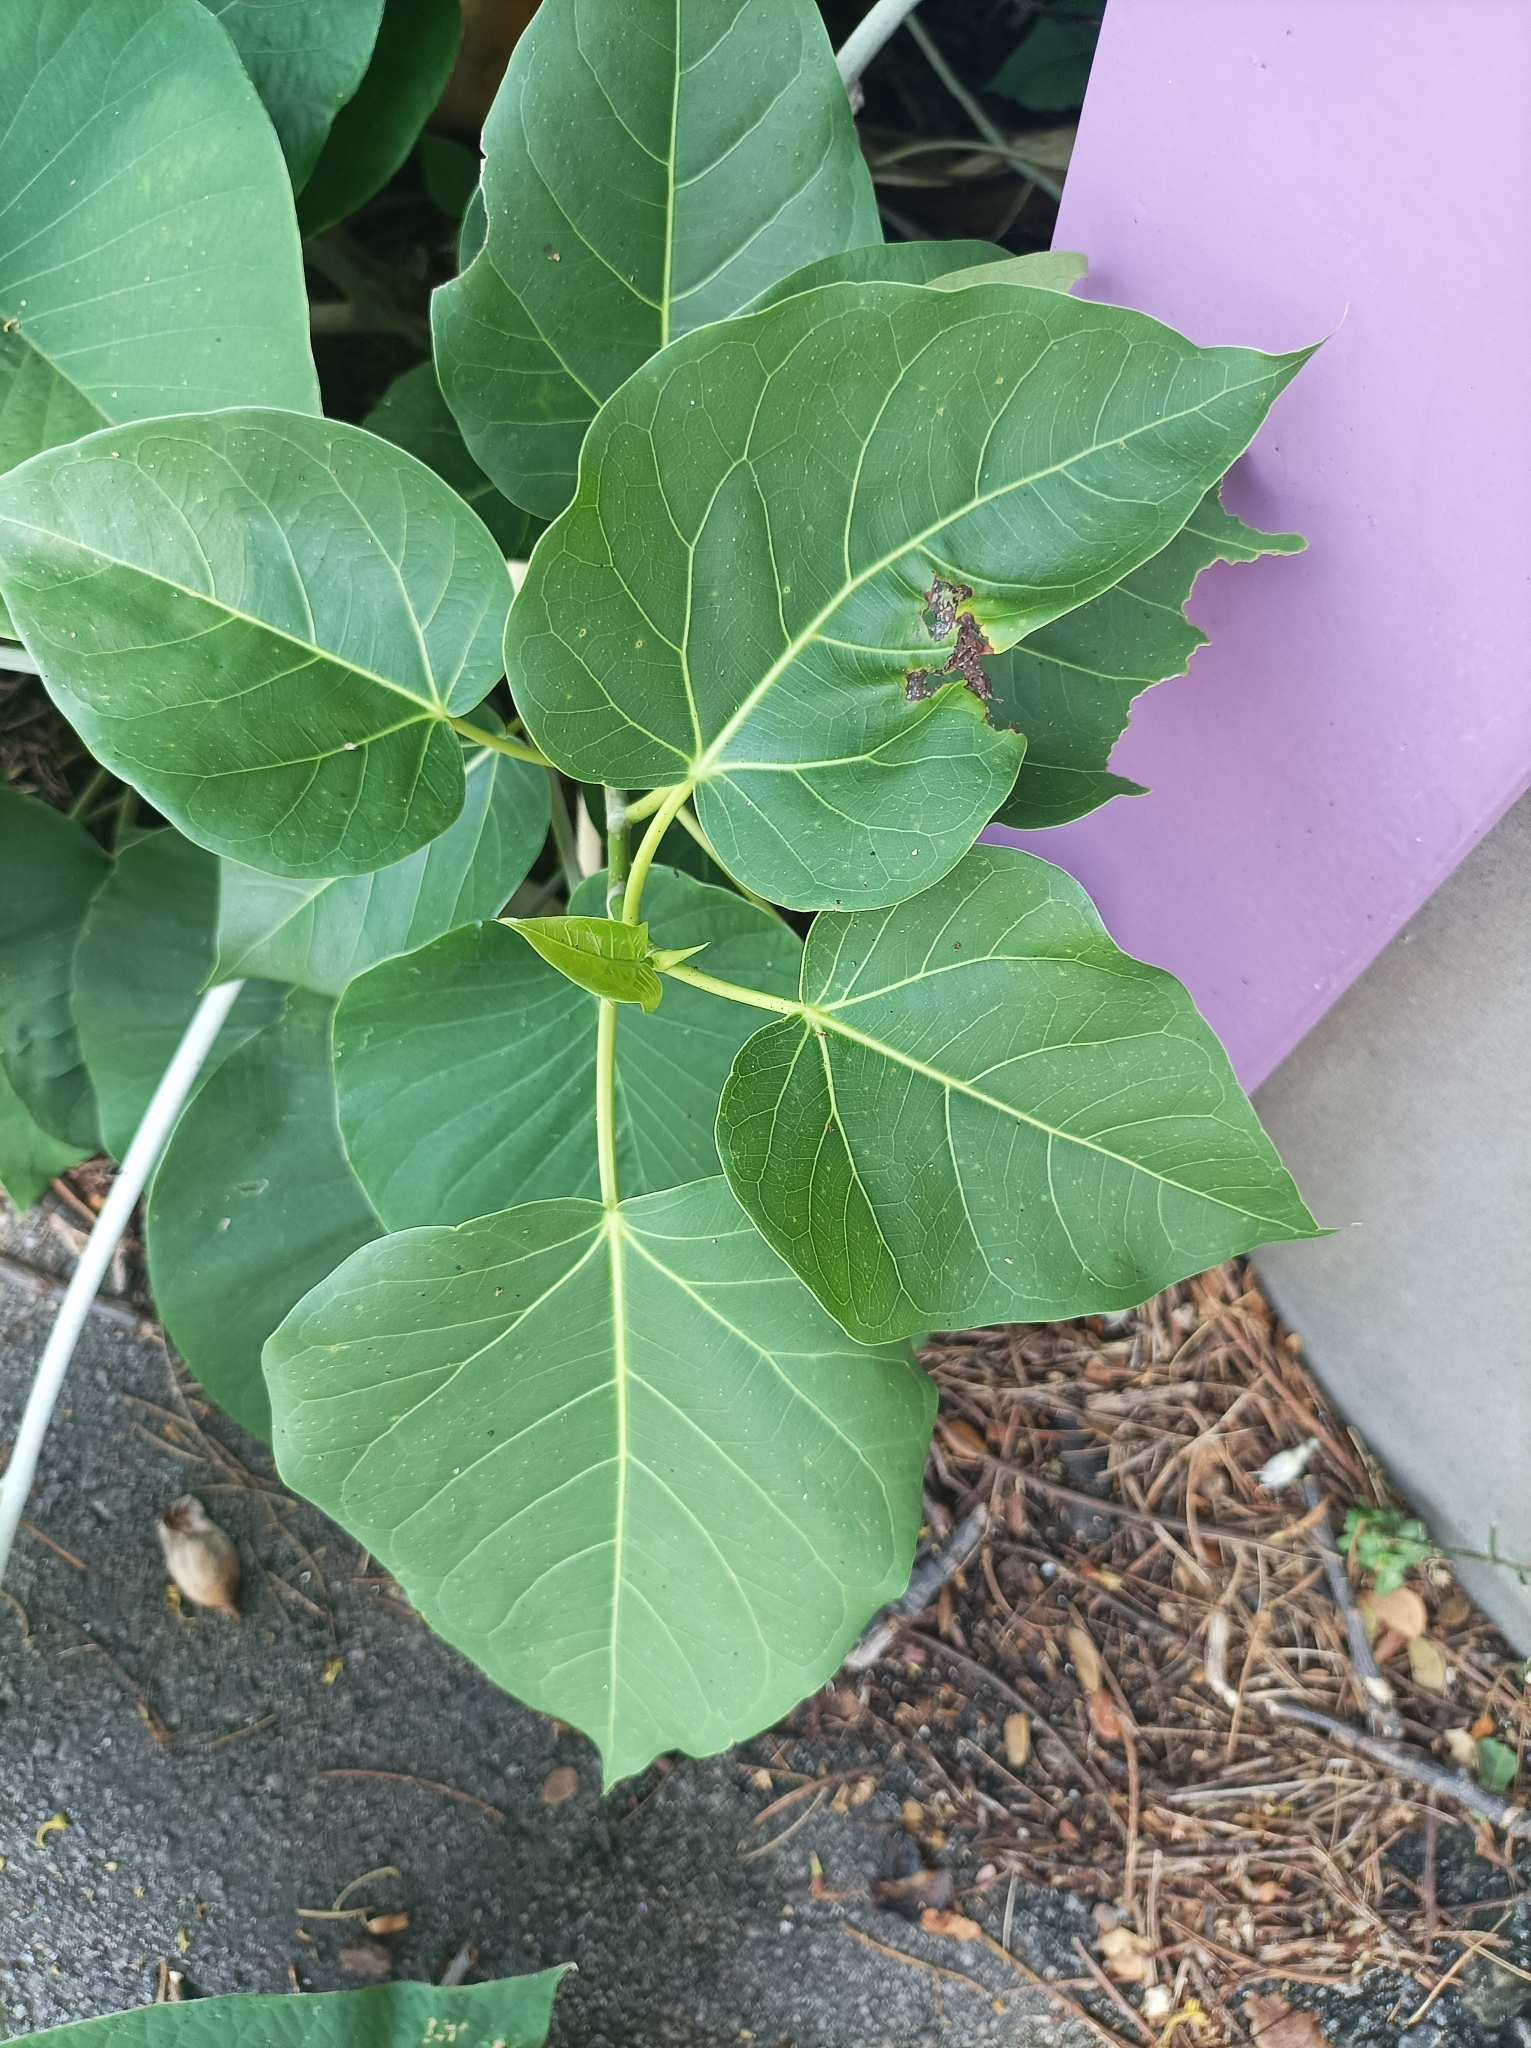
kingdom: Plantae
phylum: Tracheophyta
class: Magnoliopsida
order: Malvales
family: Malvaceae
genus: Thespesia
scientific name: Thespesia populnea
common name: Seaside mahoe
